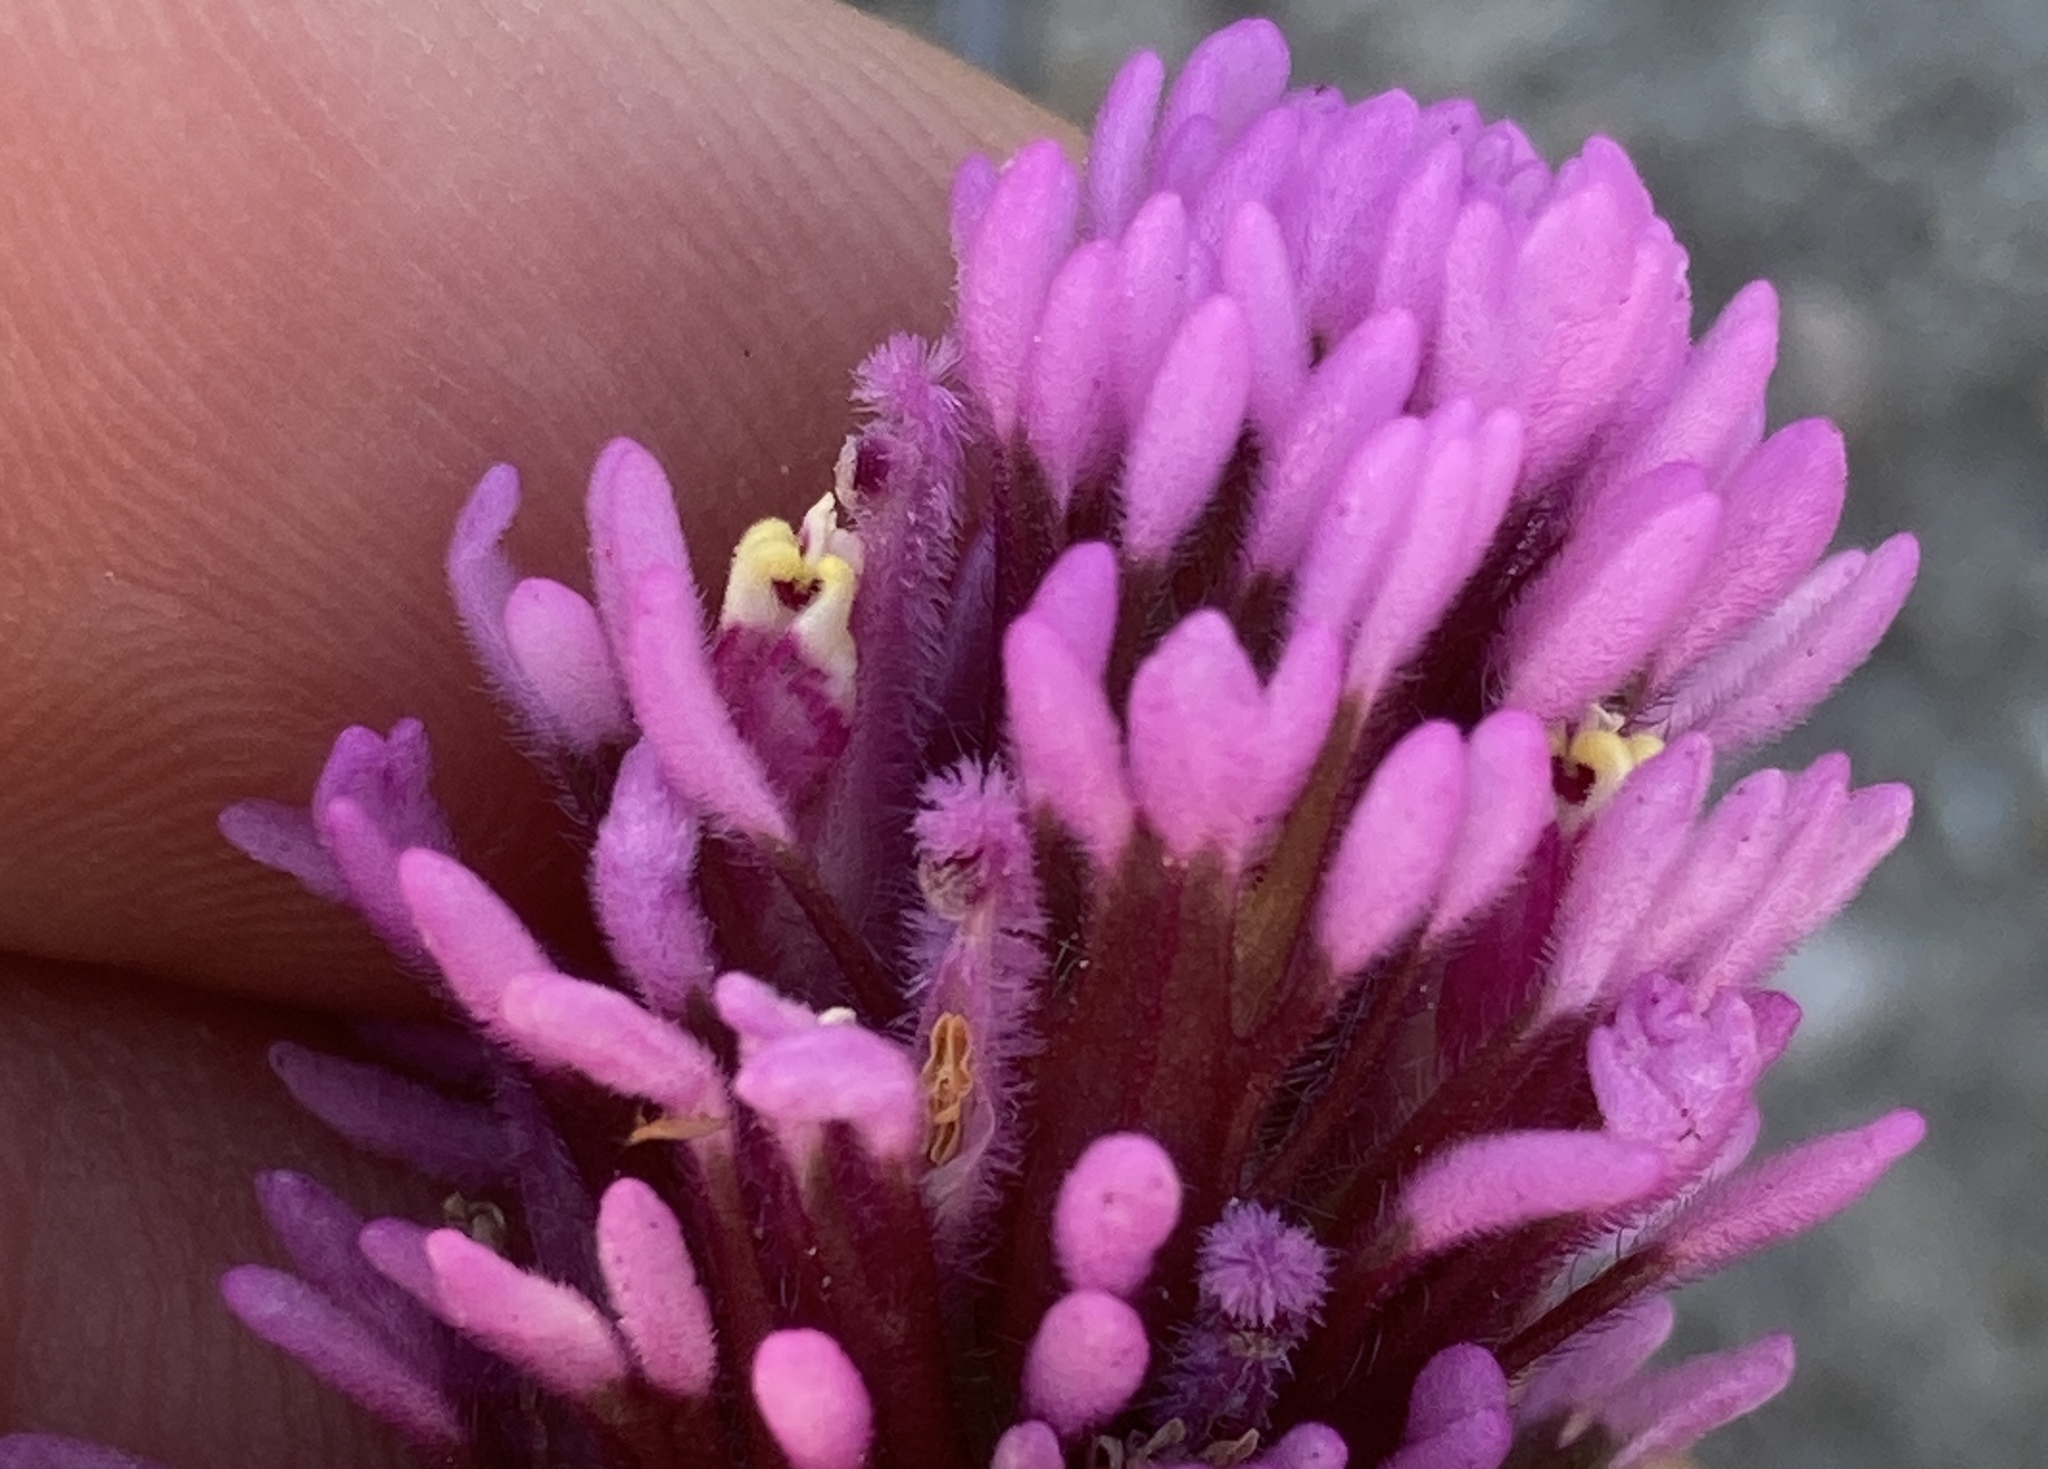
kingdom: Plantae
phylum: Tracheophyta
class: Magnoliopsida
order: Lamiales
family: Orobanchaceae
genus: Castilleja
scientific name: Castilleja exserta
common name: Purple owl-clover
